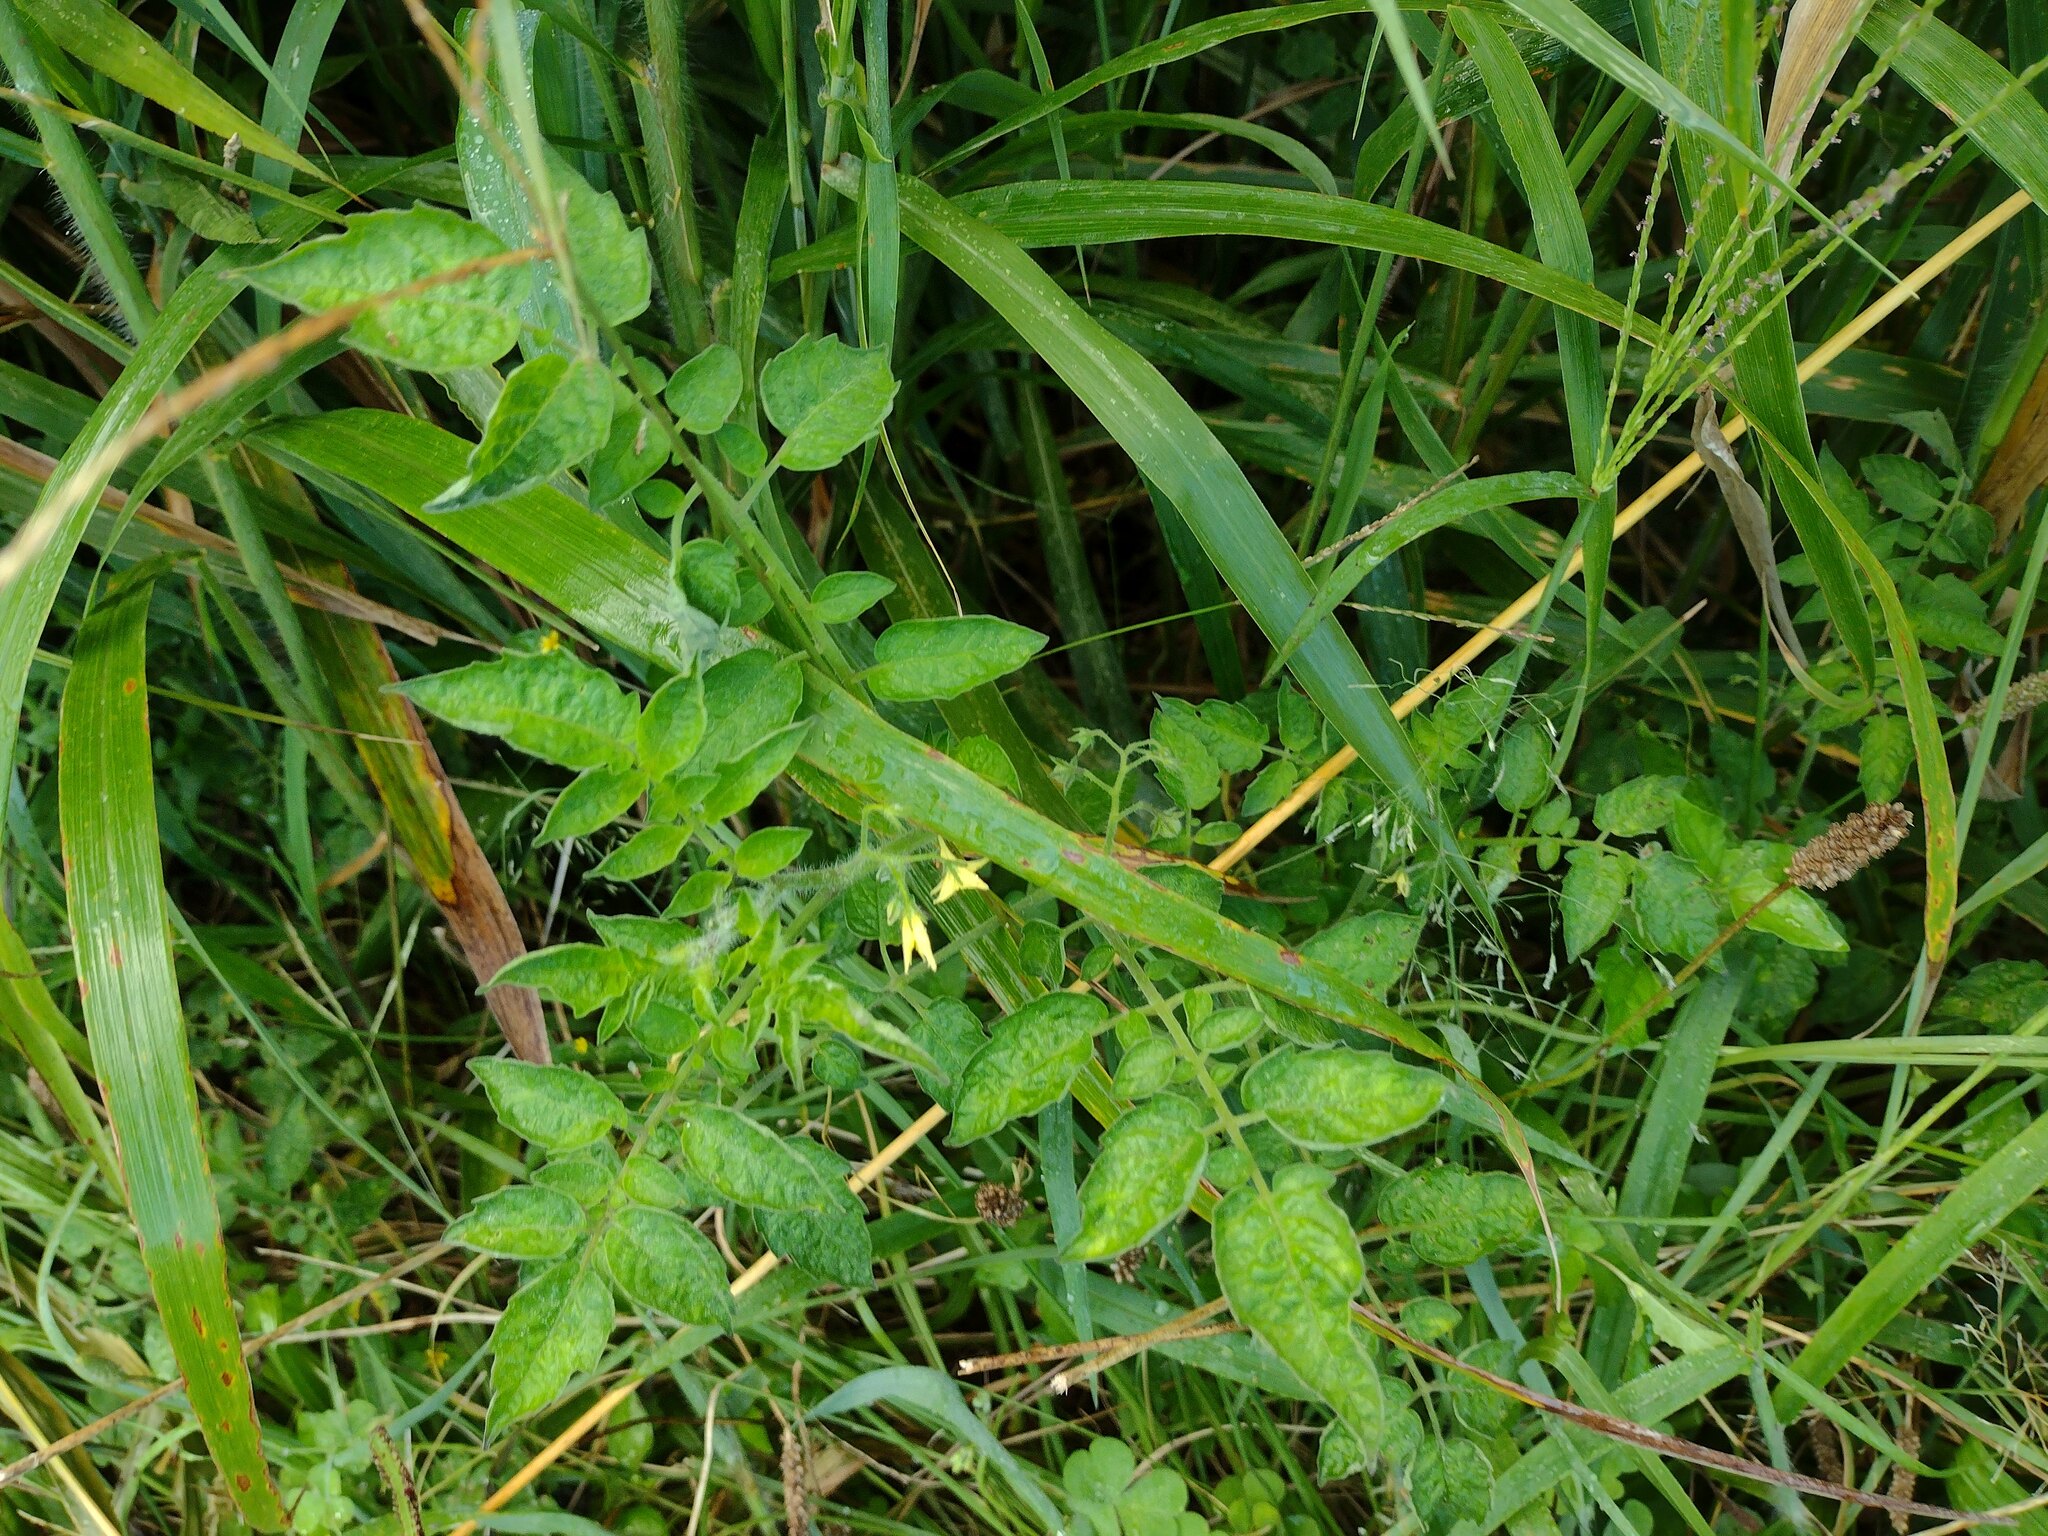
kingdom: Plantae
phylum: Tracheophyta
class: Magnoliopsida
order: Solanales
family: Solanaceae
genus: Solanum
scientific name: Solanum lycopersicum
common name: Garden tomato
